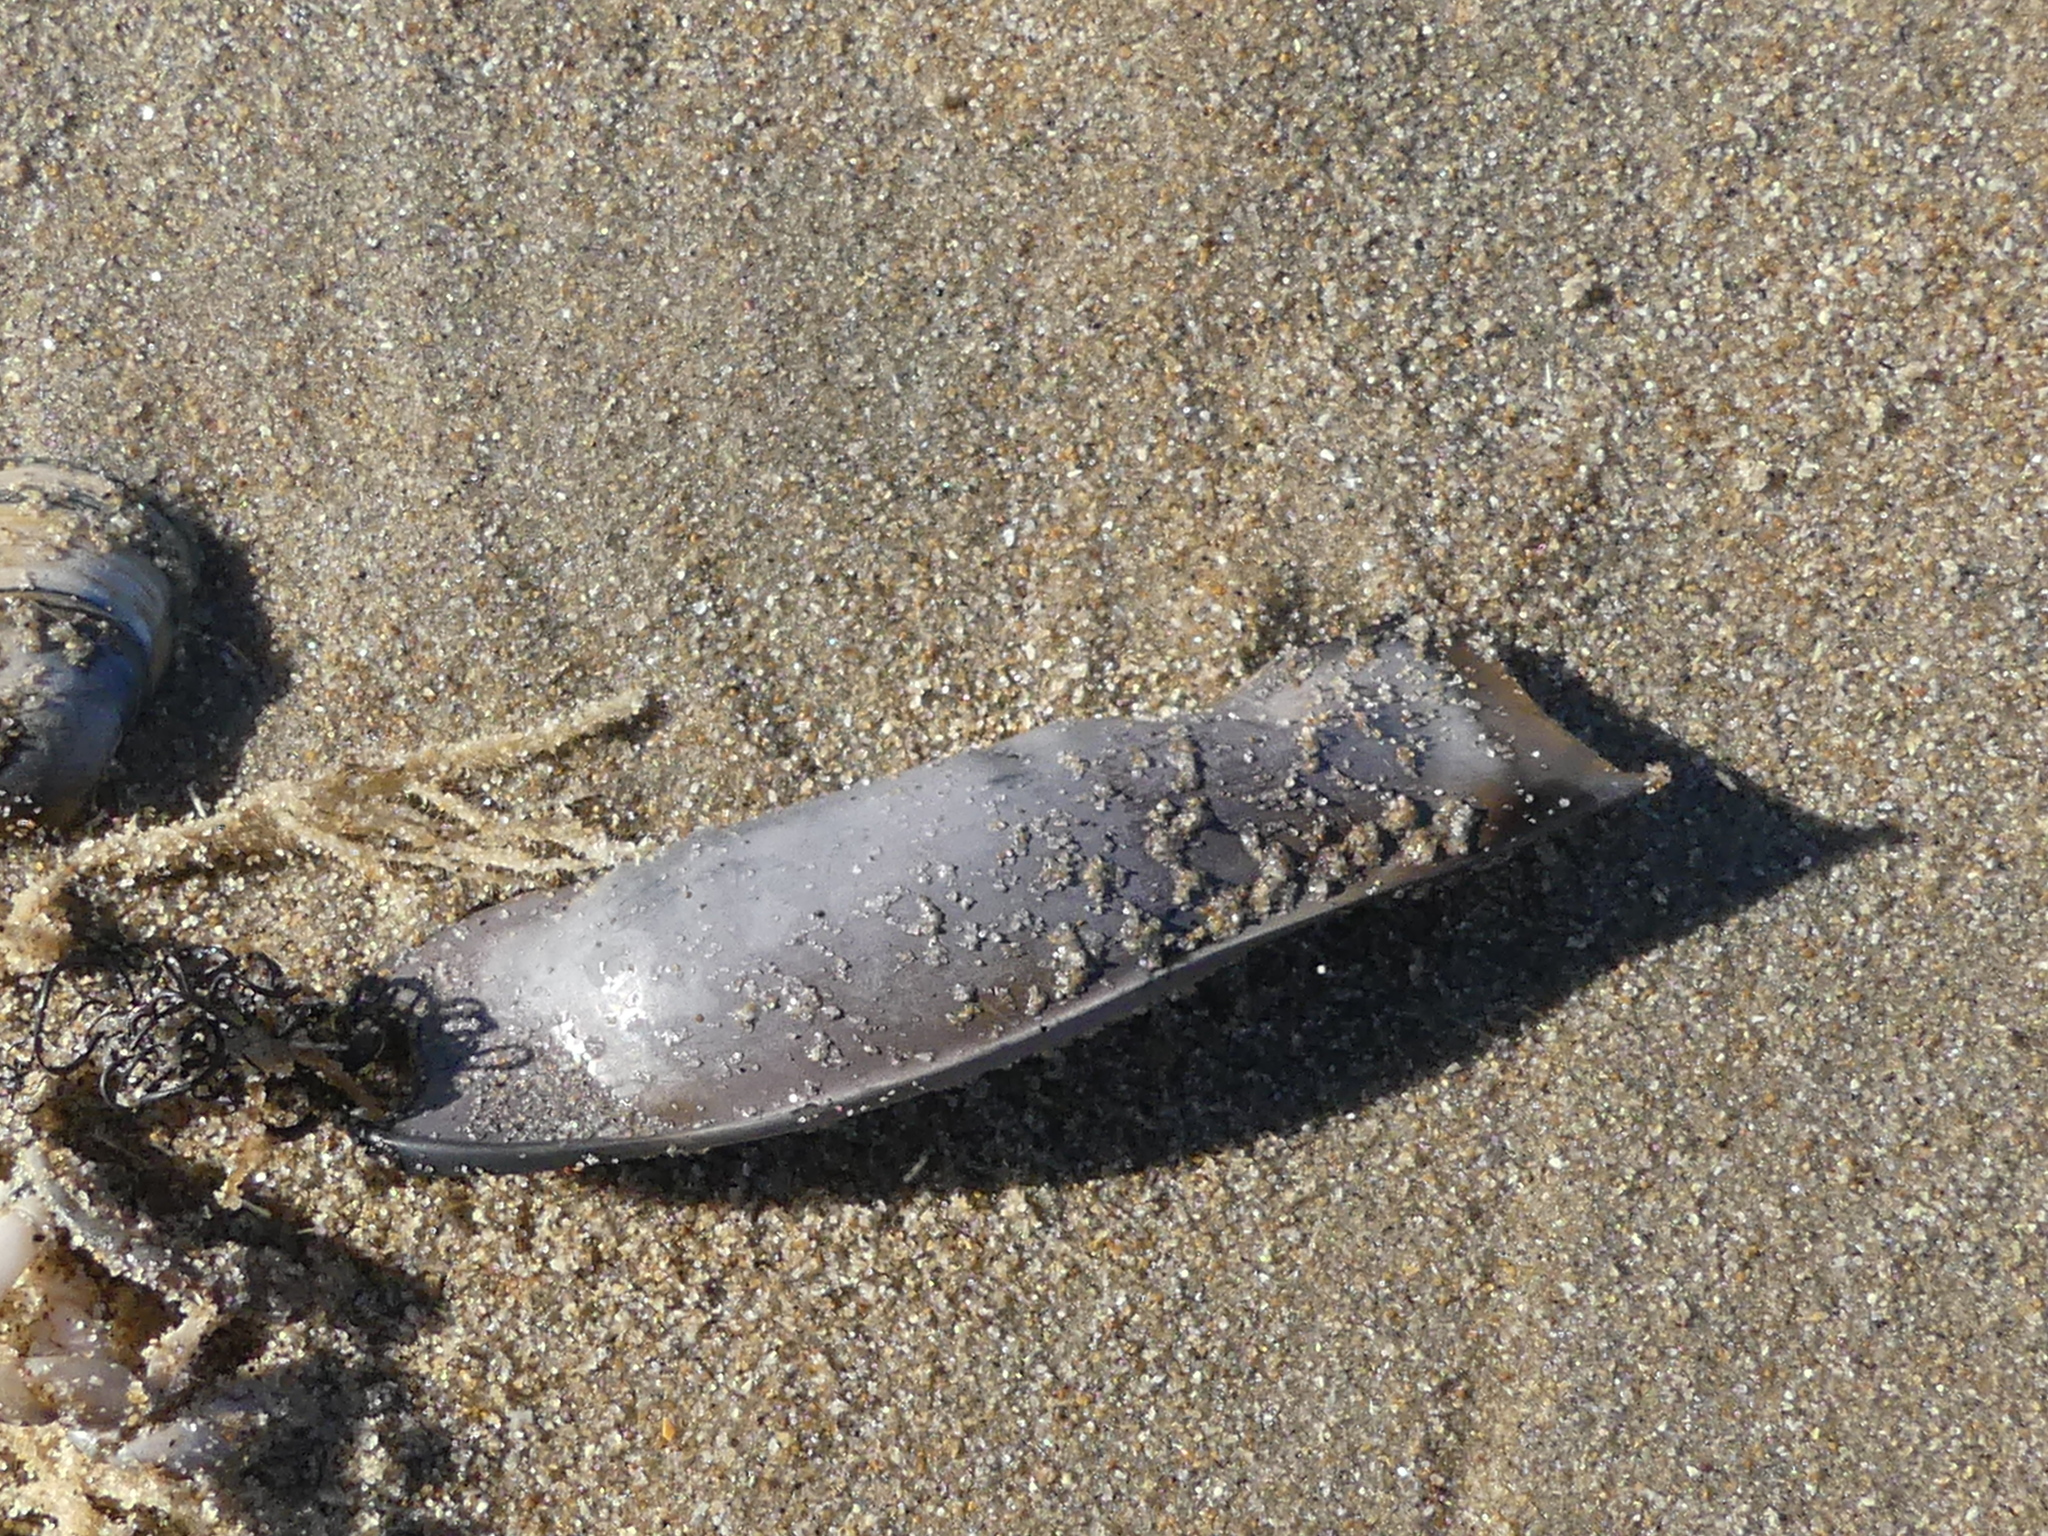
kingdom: Animalia
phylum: Chordata
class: Elasmobranchii
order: Carcharhiniformes
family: Scyliorhinidae
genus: Scyliorhinus
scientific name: Scyliorhinus canicula
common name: Lesser spotted dogfish
